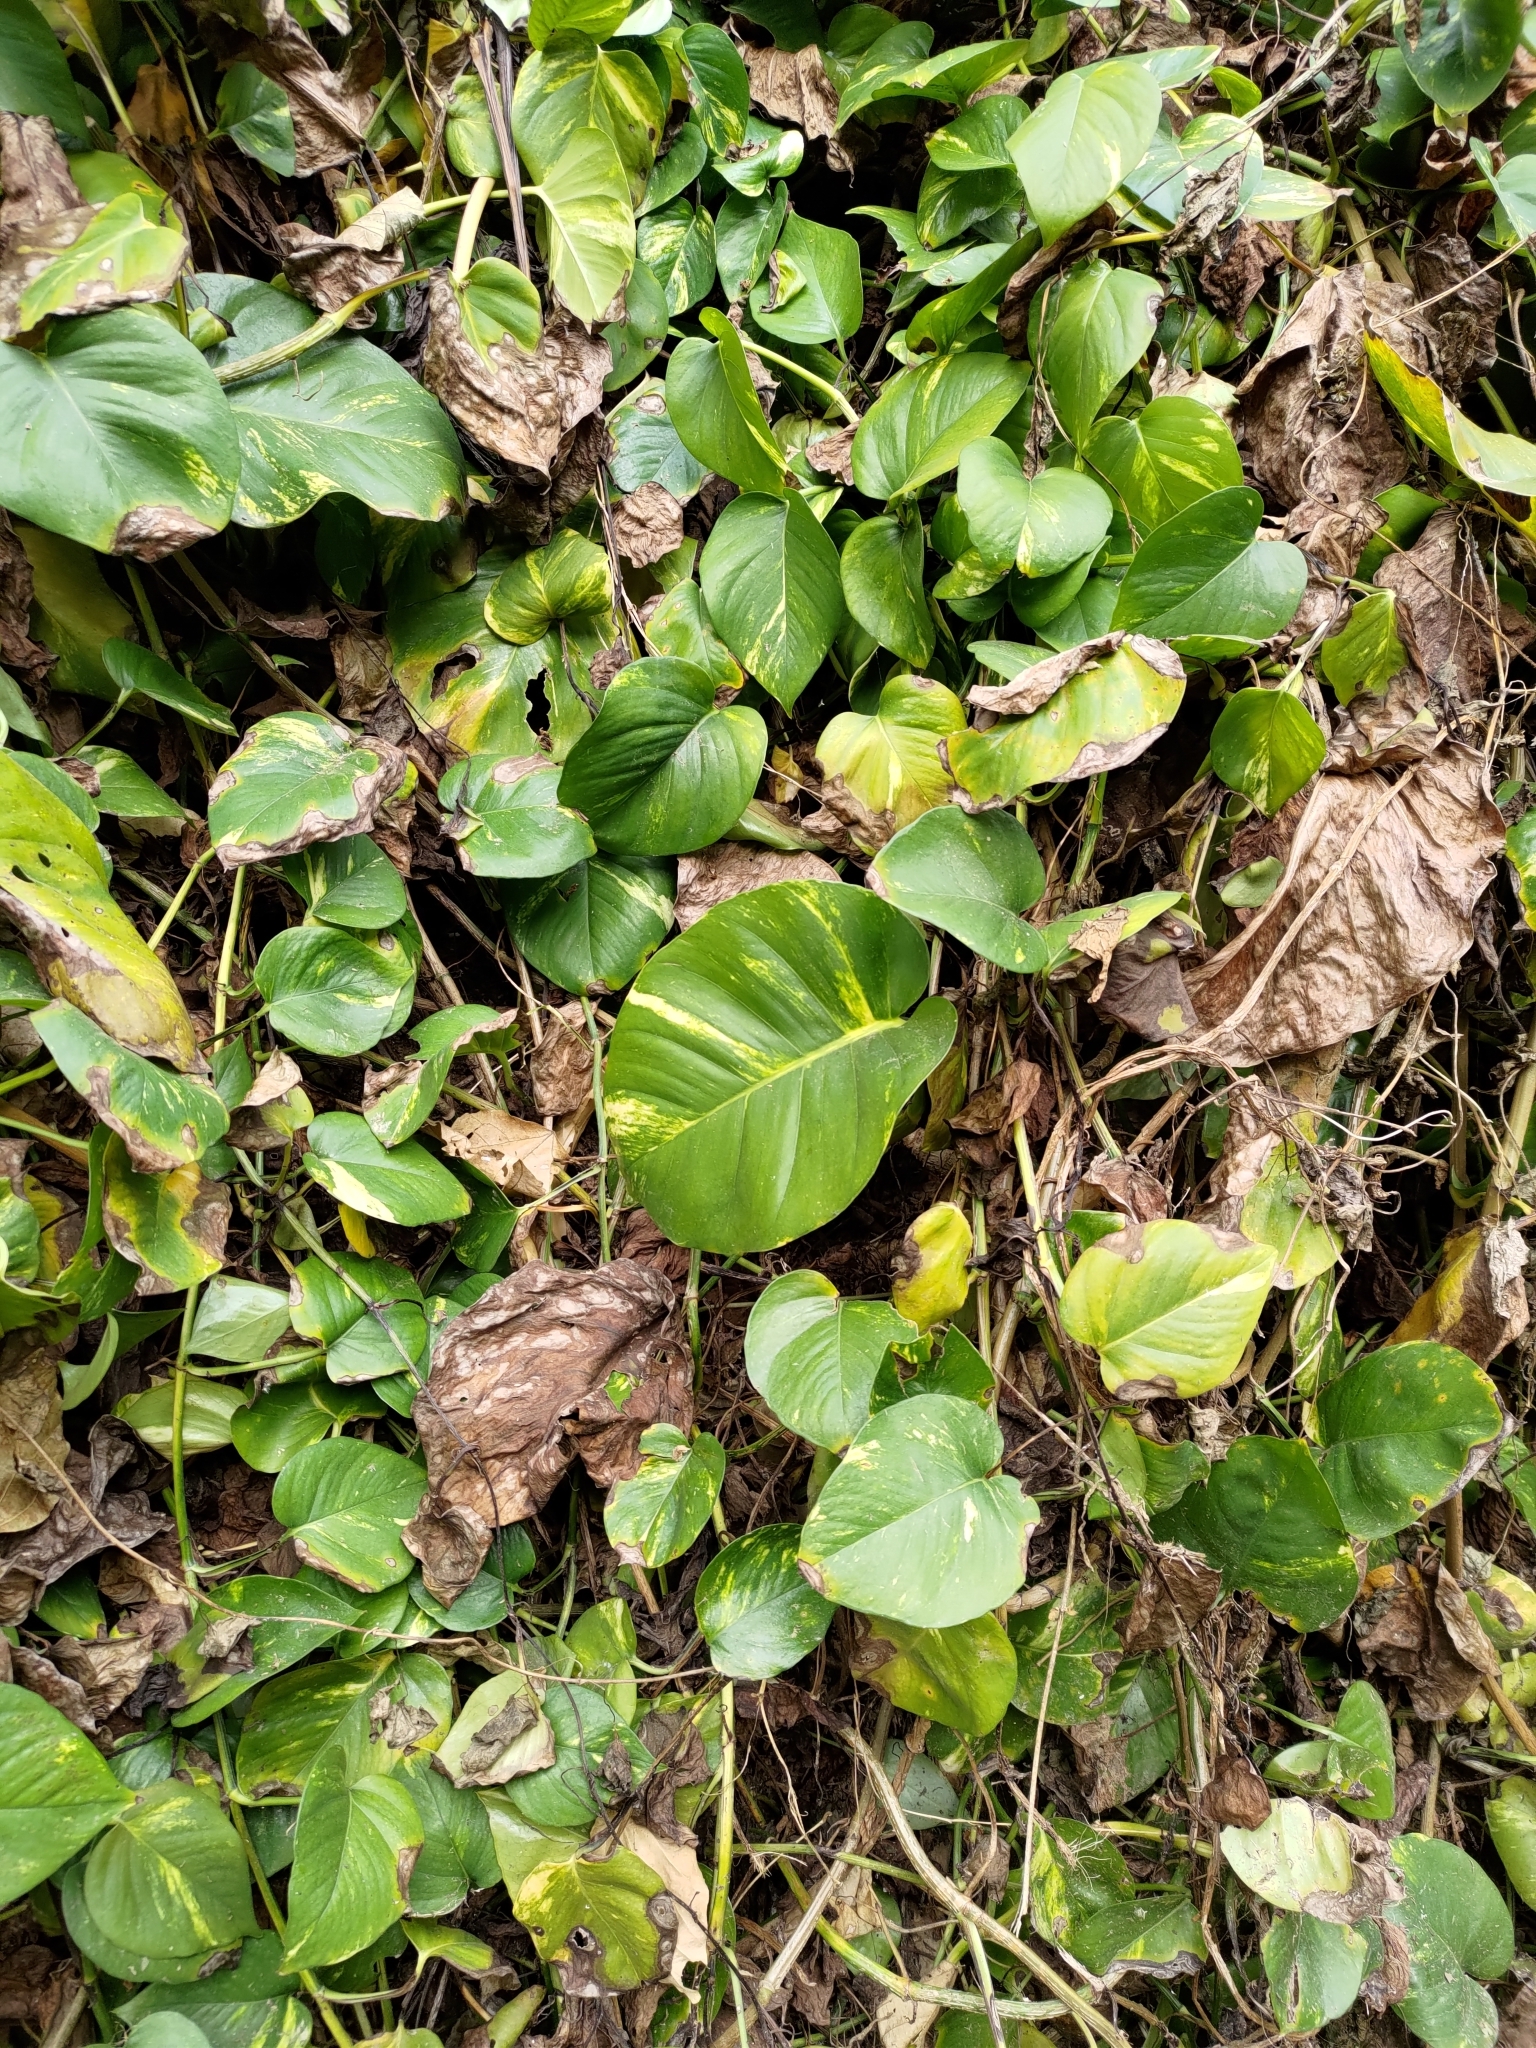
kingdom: Plantae
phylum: Tracheophyta
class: Liliopsida
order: Alismatales
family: Araceae
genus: Epipremnum
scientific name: Epipremnum aureum
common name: Golden hunter's-robe
